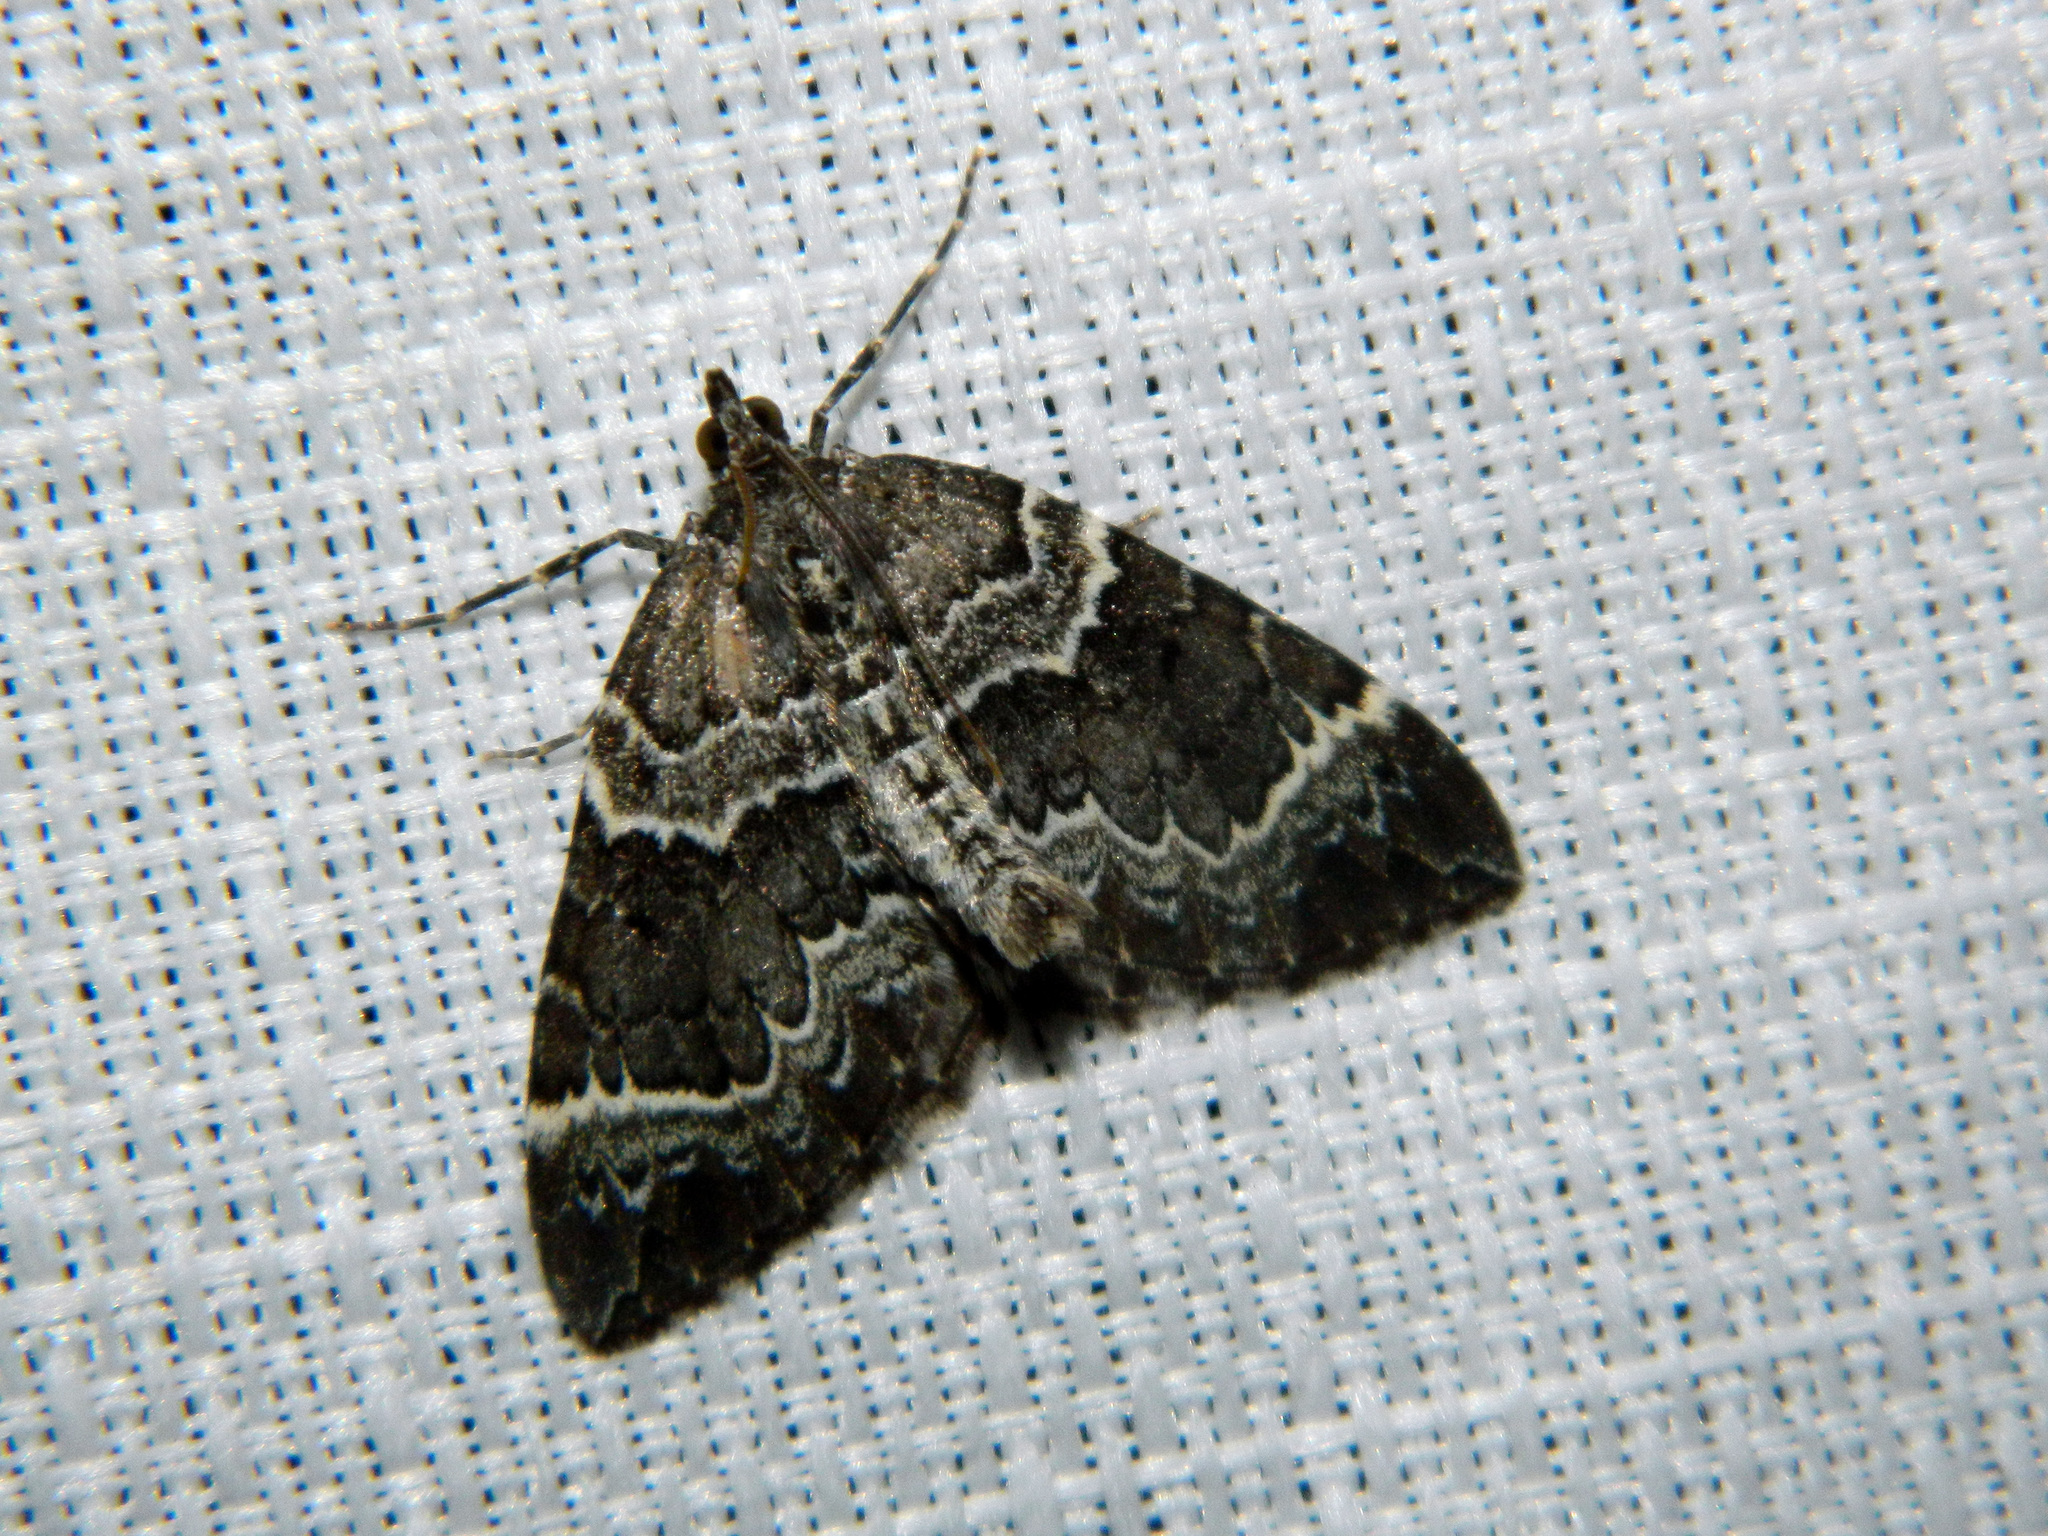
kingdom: Animalia
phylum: Arthropoda
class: Insecta
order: Lepidoptera
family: Geometridae
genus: Eulithis
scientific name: Eulithis explanata
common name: White eulithis
